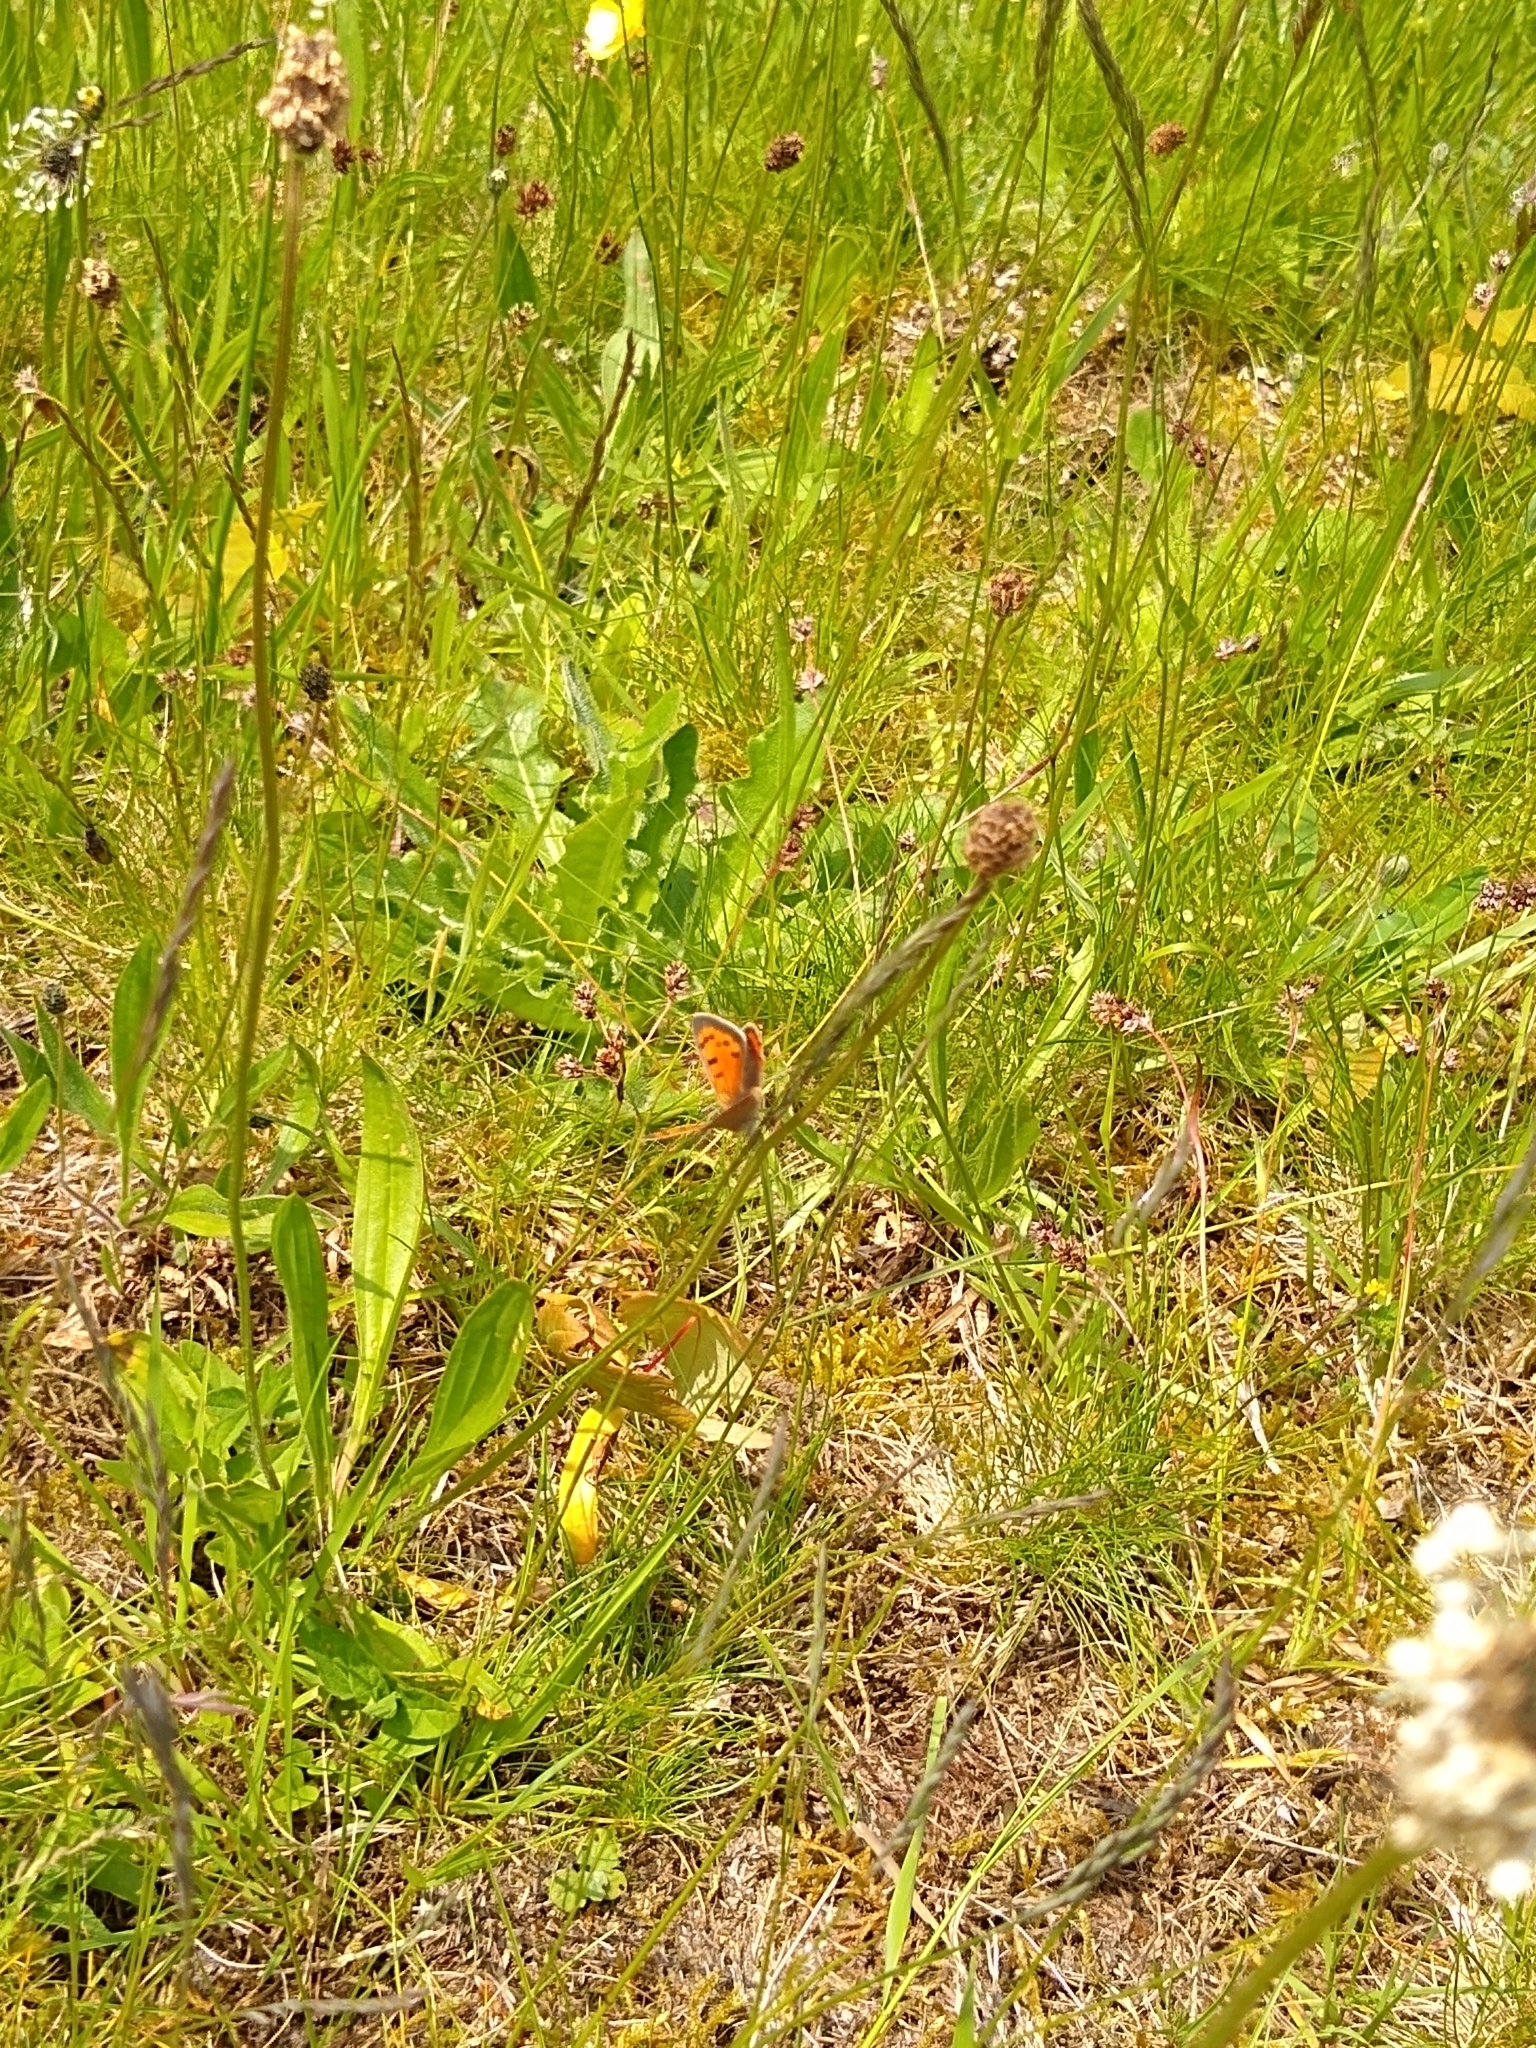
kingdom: Animalia
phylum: Arthropoda
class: Insecta
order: Lepidoptera
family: Lycaenidae
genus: Lycaena
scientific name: Lycaena phlaeas
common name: Small copper
